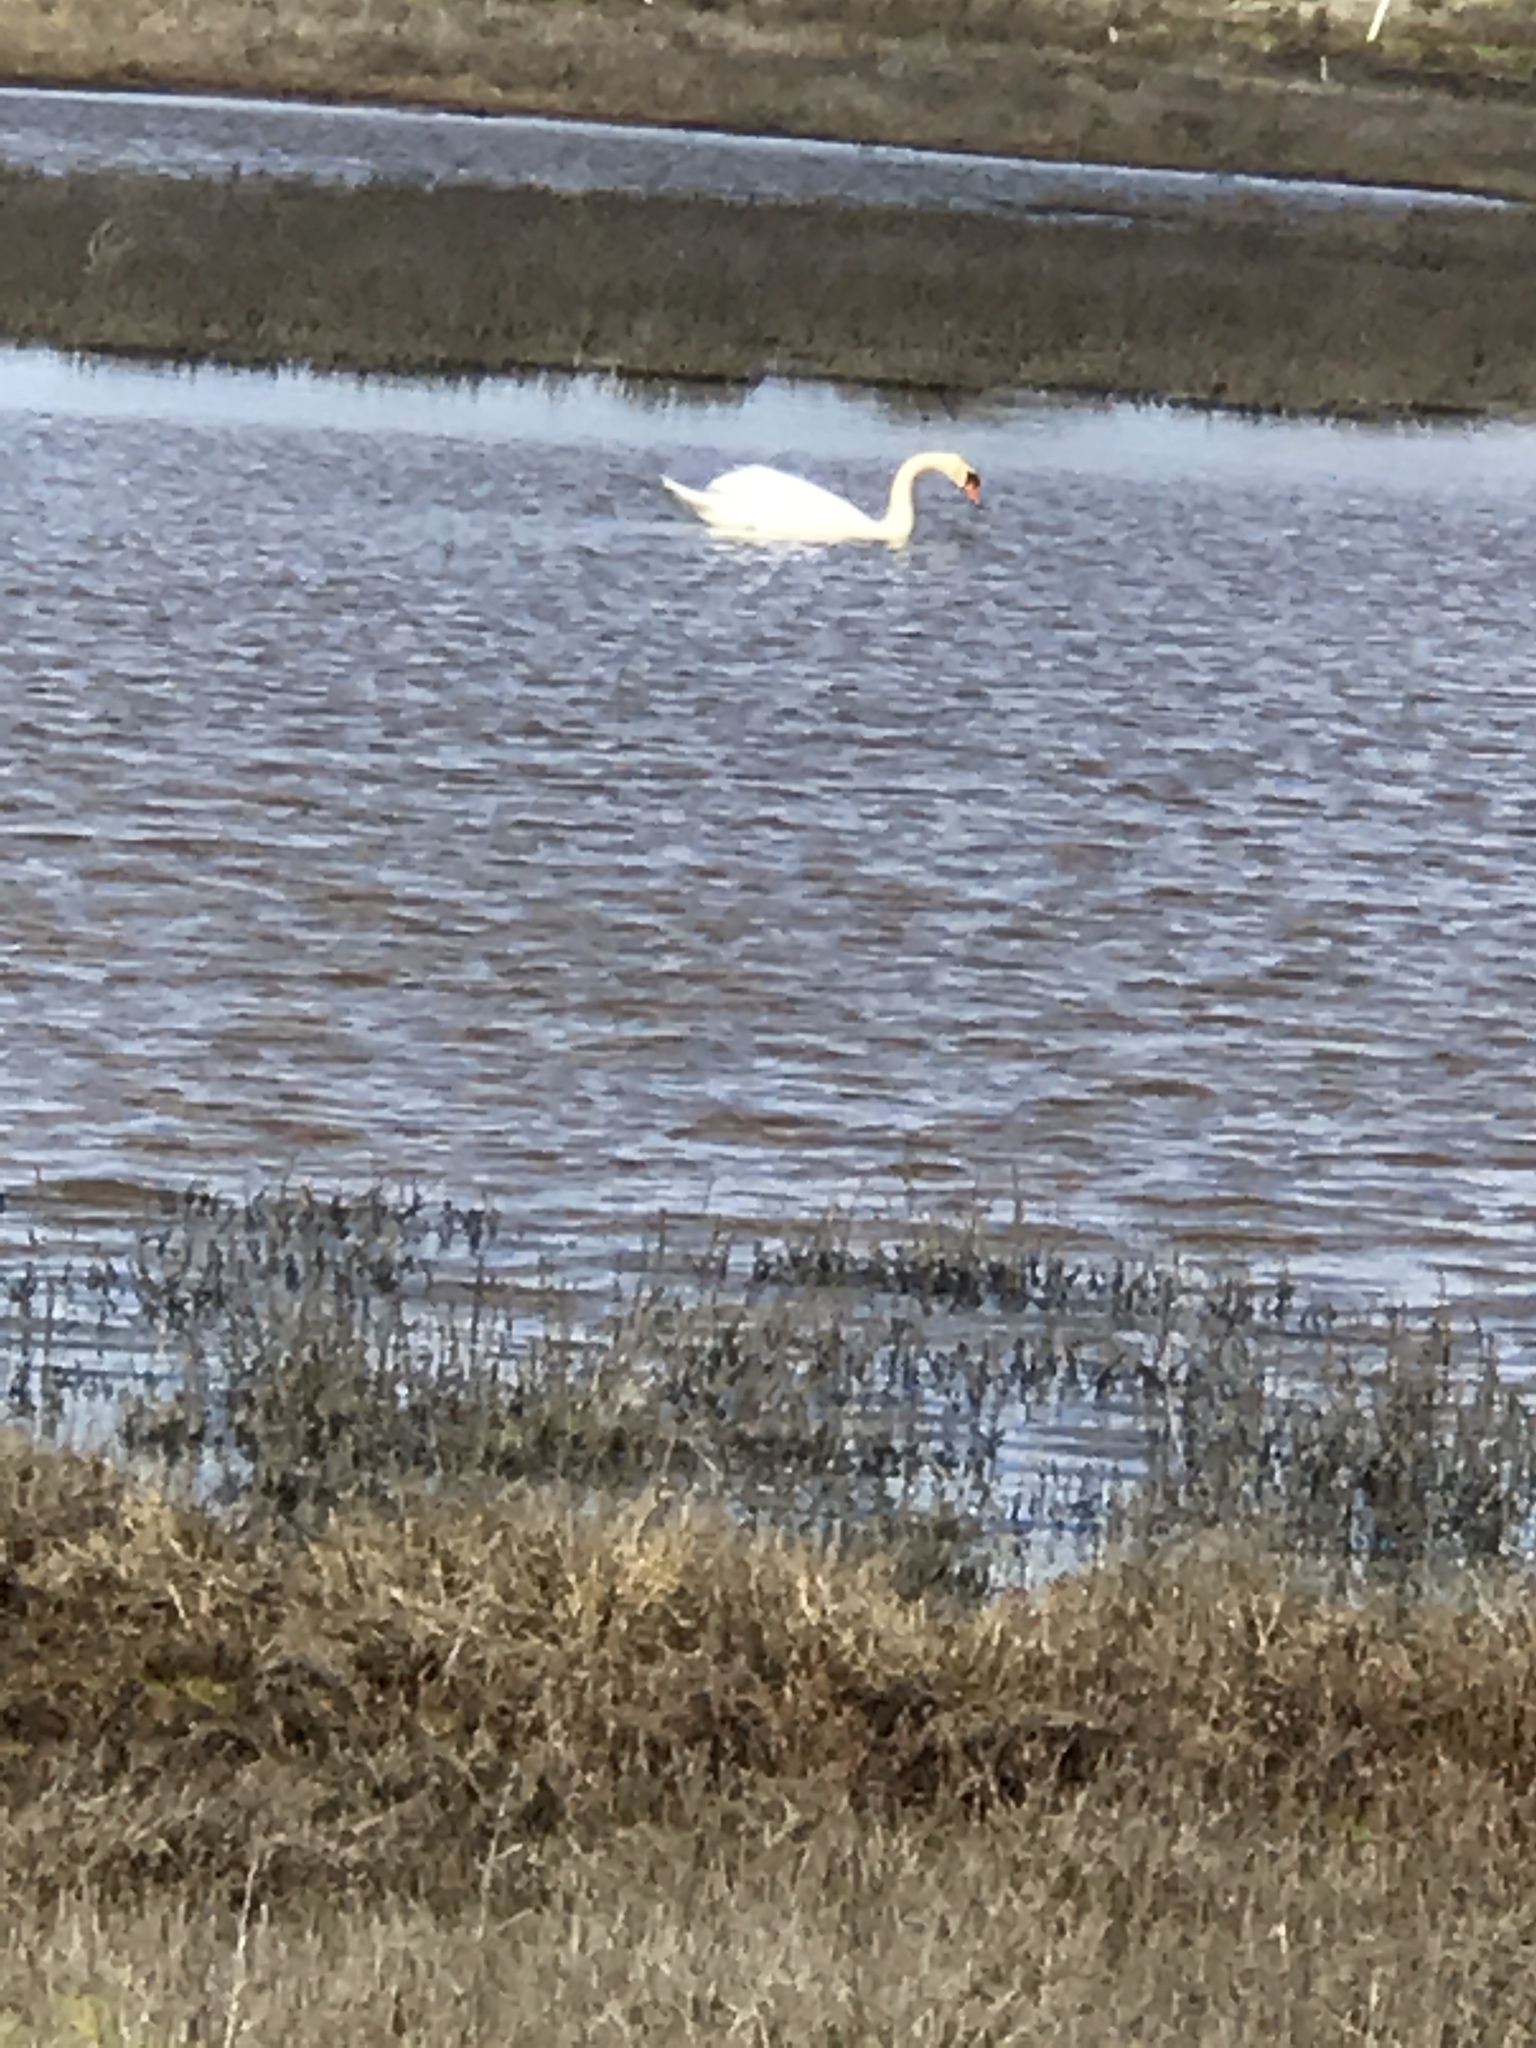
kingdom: Animalia
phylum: Chordata
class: Aves
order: Anseriformes
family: Anatidae
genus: Cygnus
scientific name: Cygnus olor
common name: Mute swan
